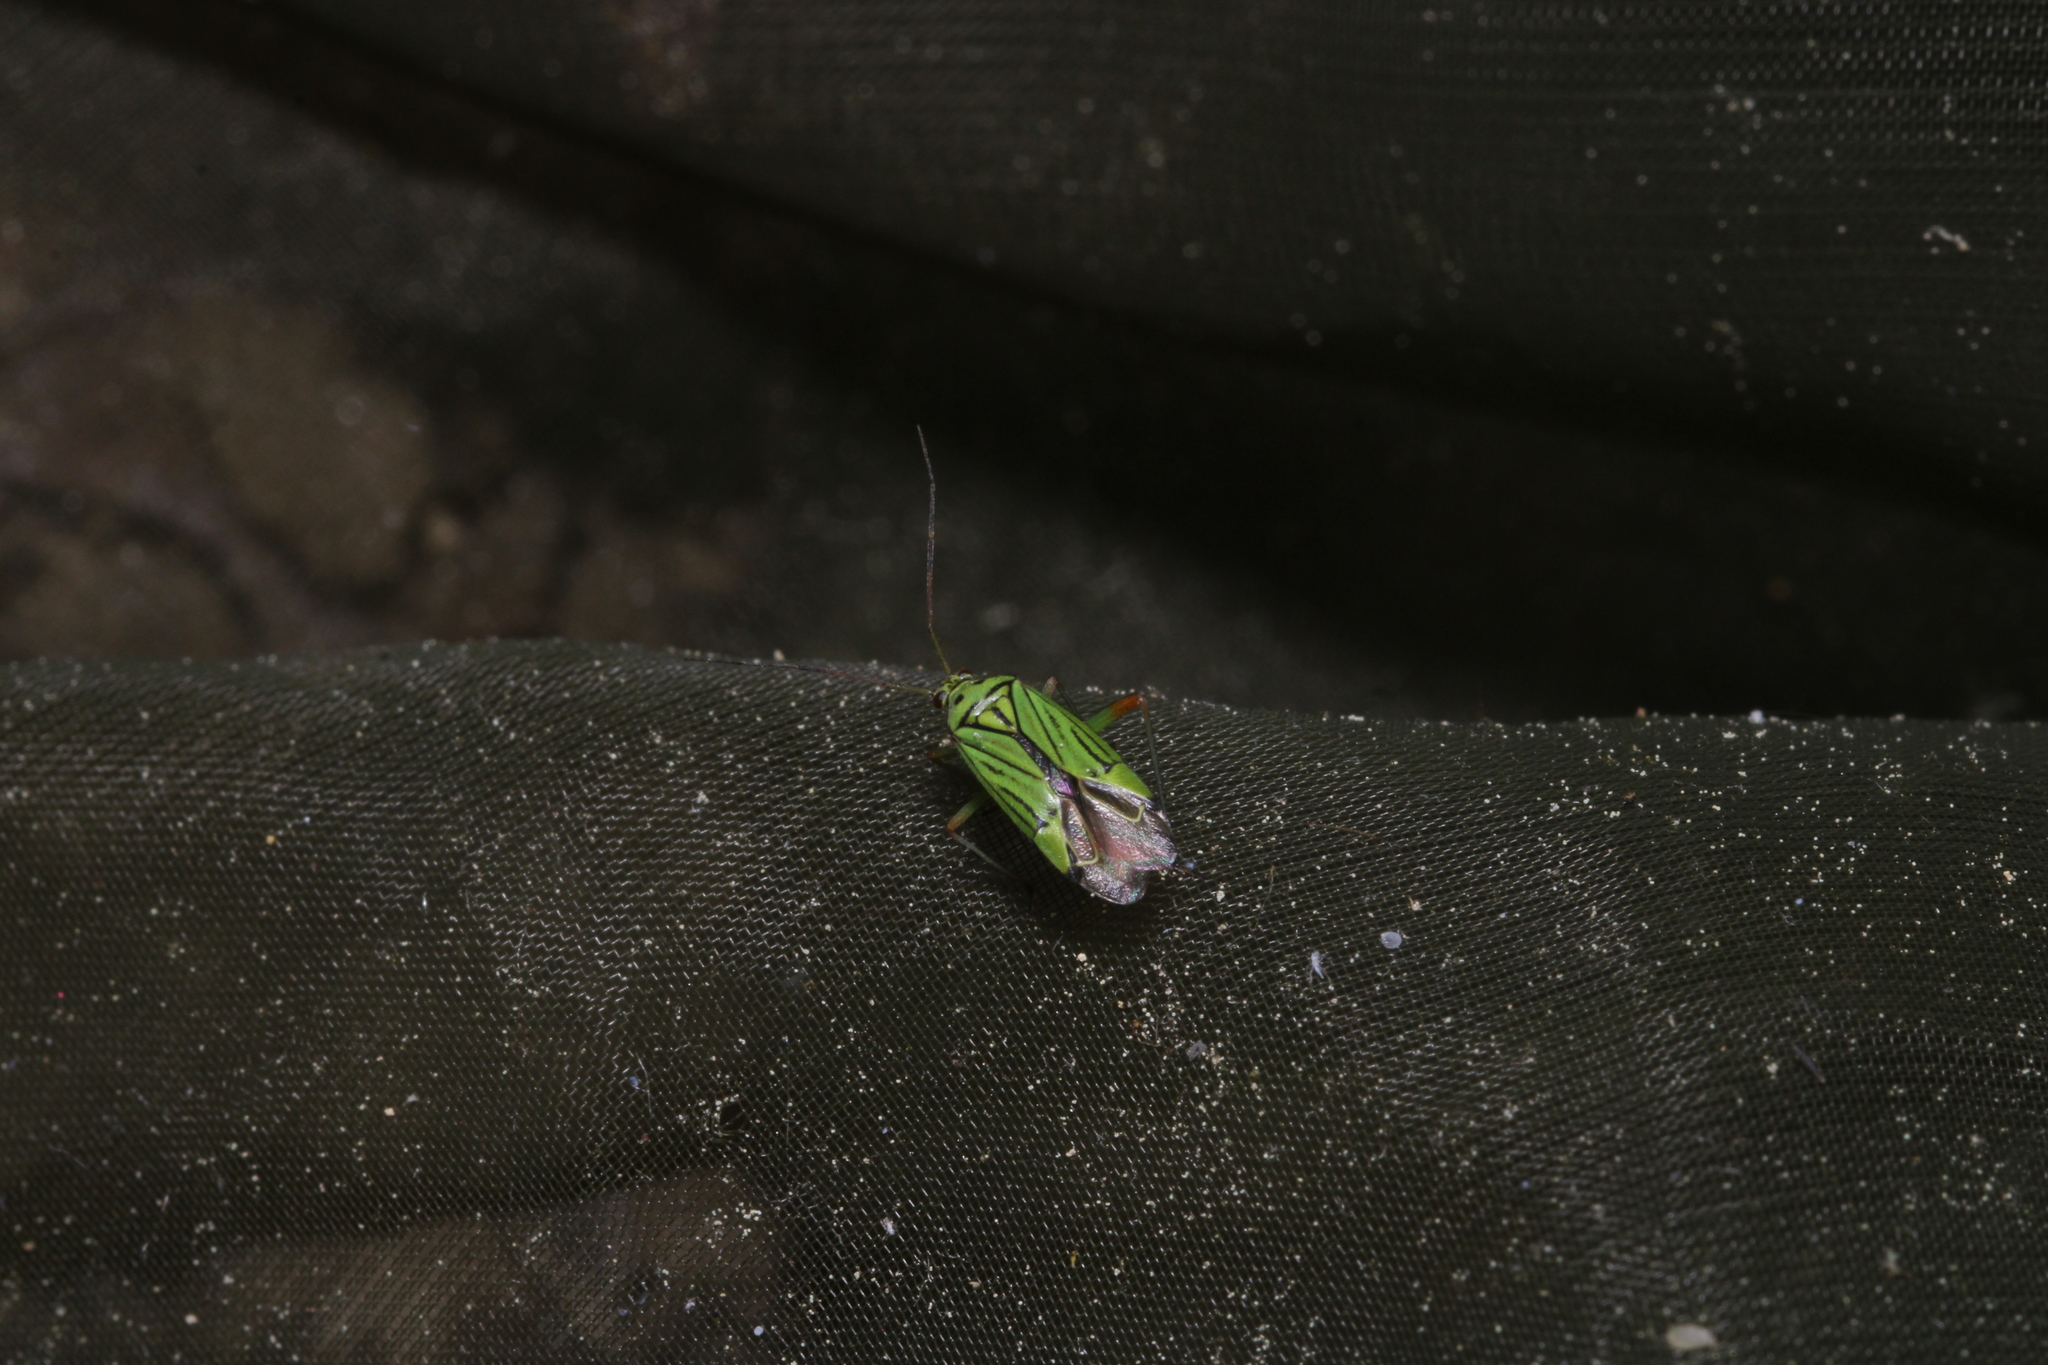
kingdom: Animalia
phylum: Arthropoda
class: Insecta
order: Hemiptera
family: Miridae
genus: Mermitelocerus
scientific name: Mermitelocerus schmidtii
